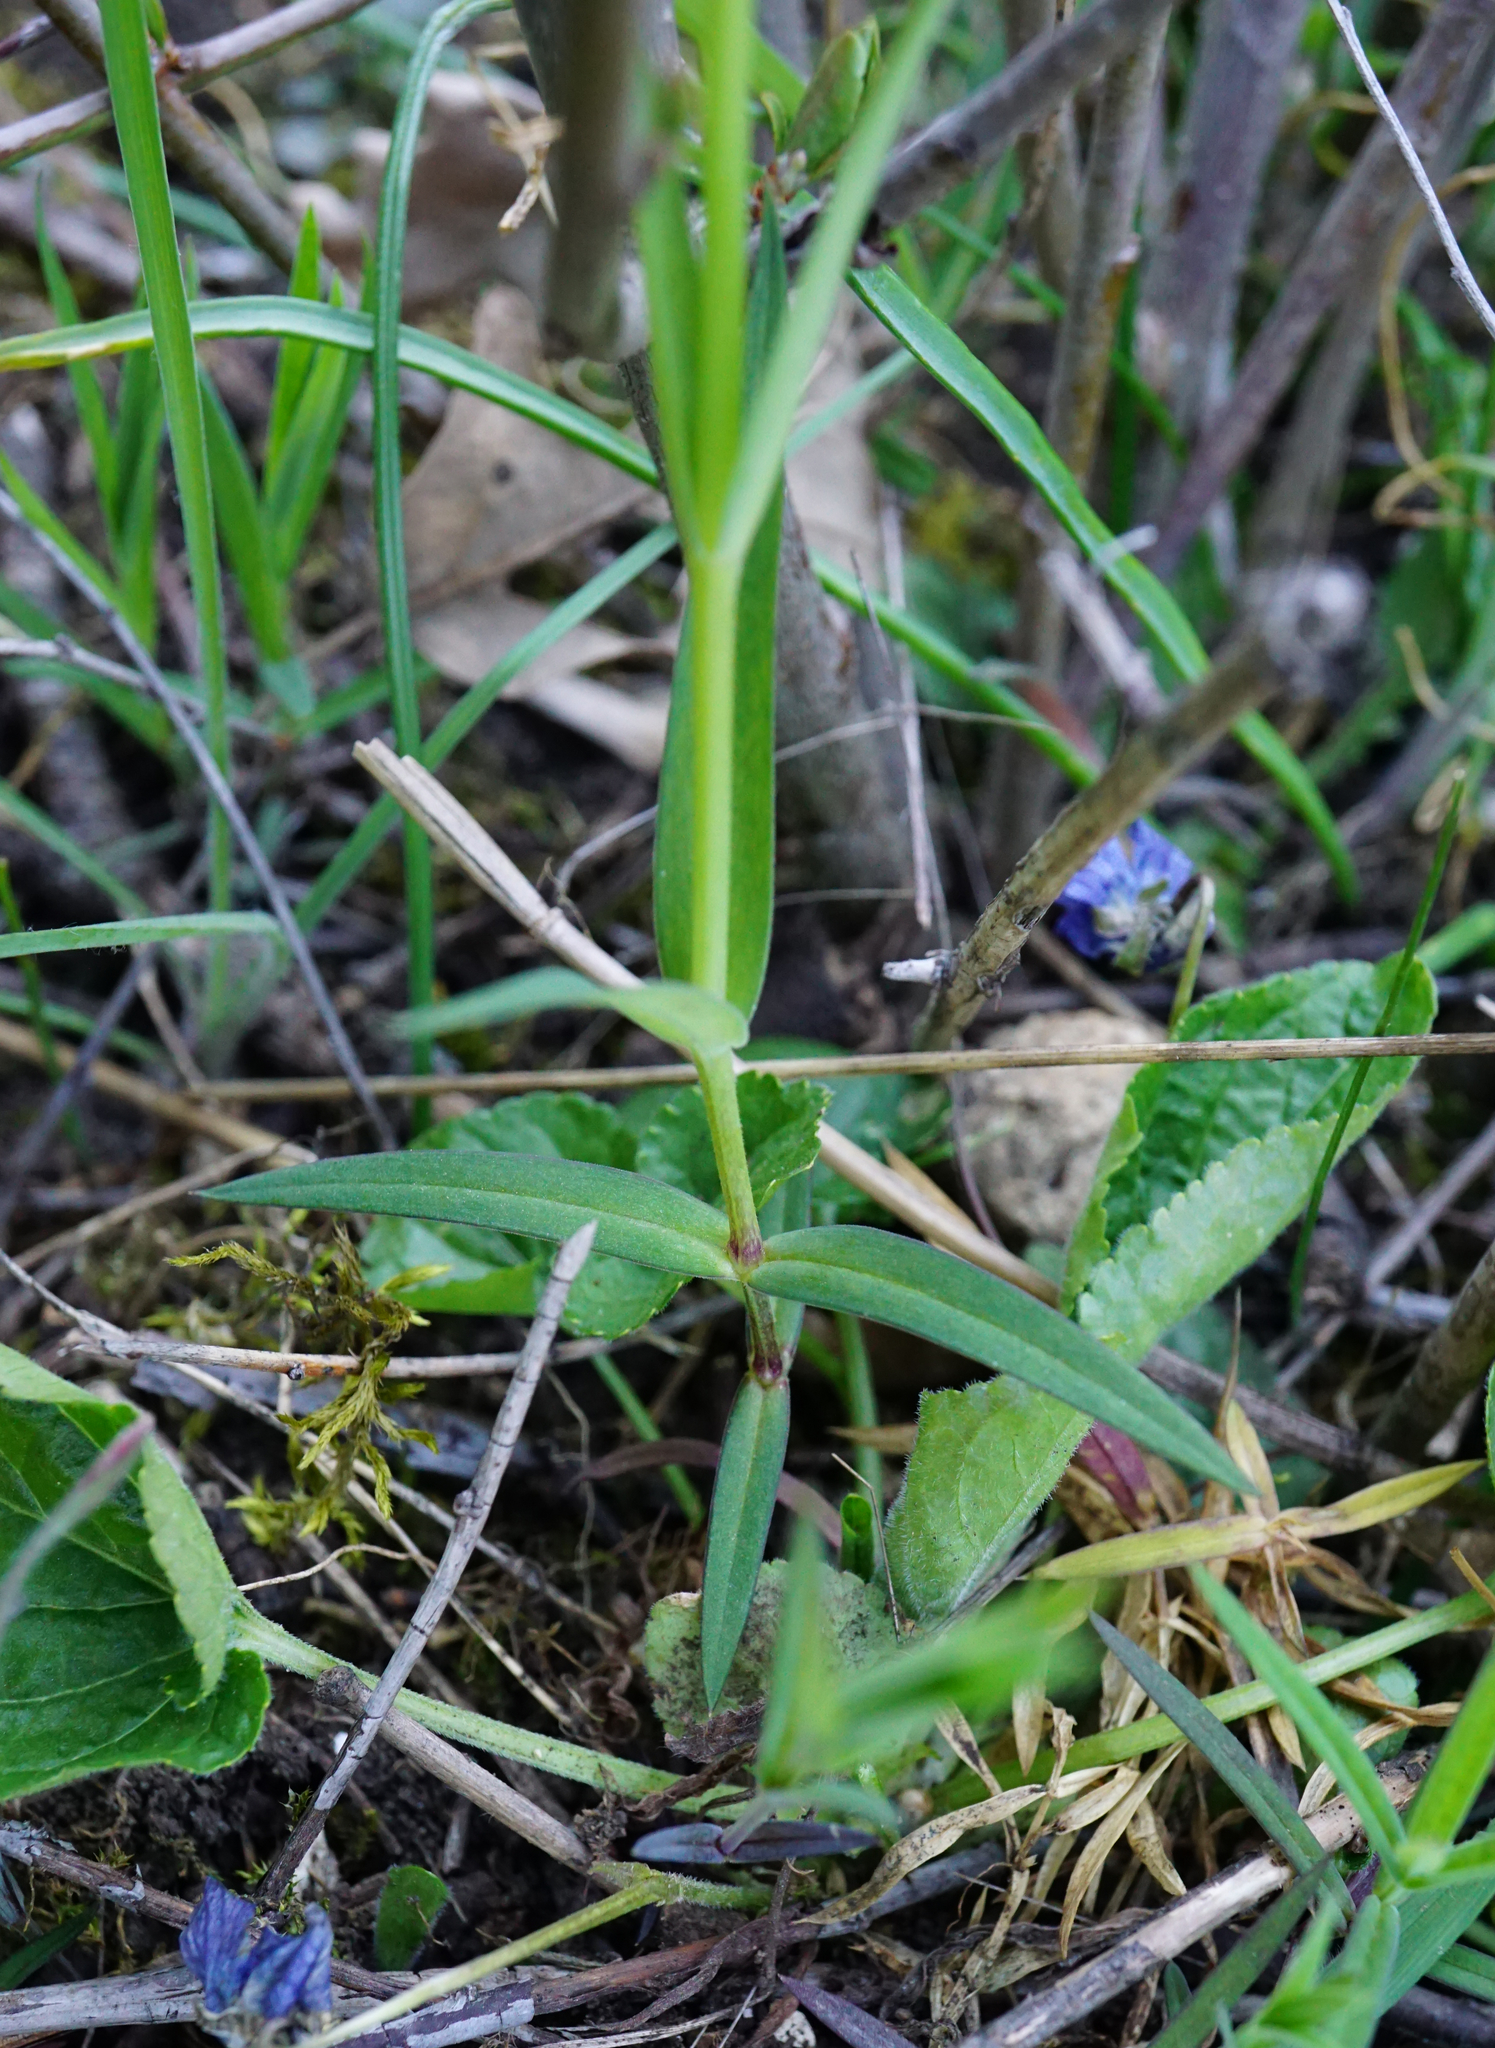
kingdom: Plantae
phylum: Tracheophyta
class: Magnoliopsida
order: Caryophyllales
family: Caryophyllaceae
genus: Rabelera
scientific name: Rabelera holostea
